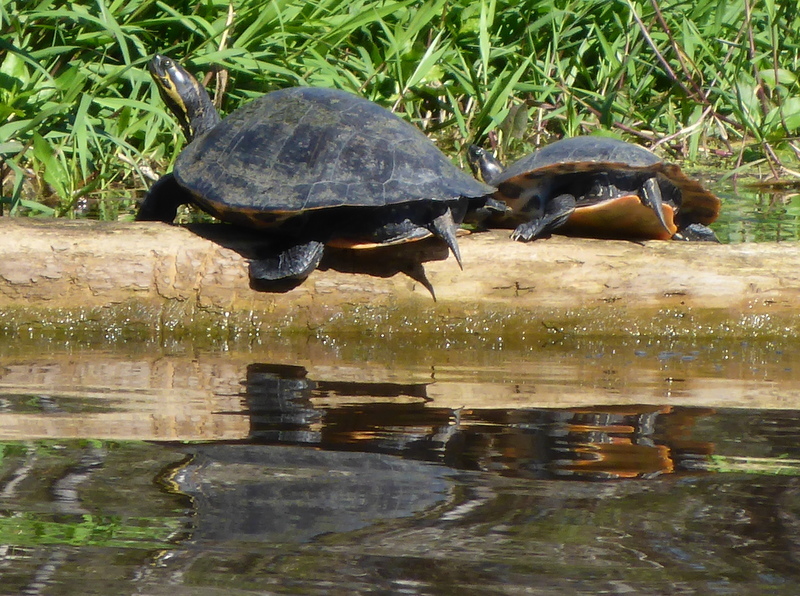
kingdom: Animalia
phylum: Chordata
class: Testudines
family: Emydidae
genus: Pseudemys
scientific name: Pseudemys concinna
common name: Eastern river cooter
